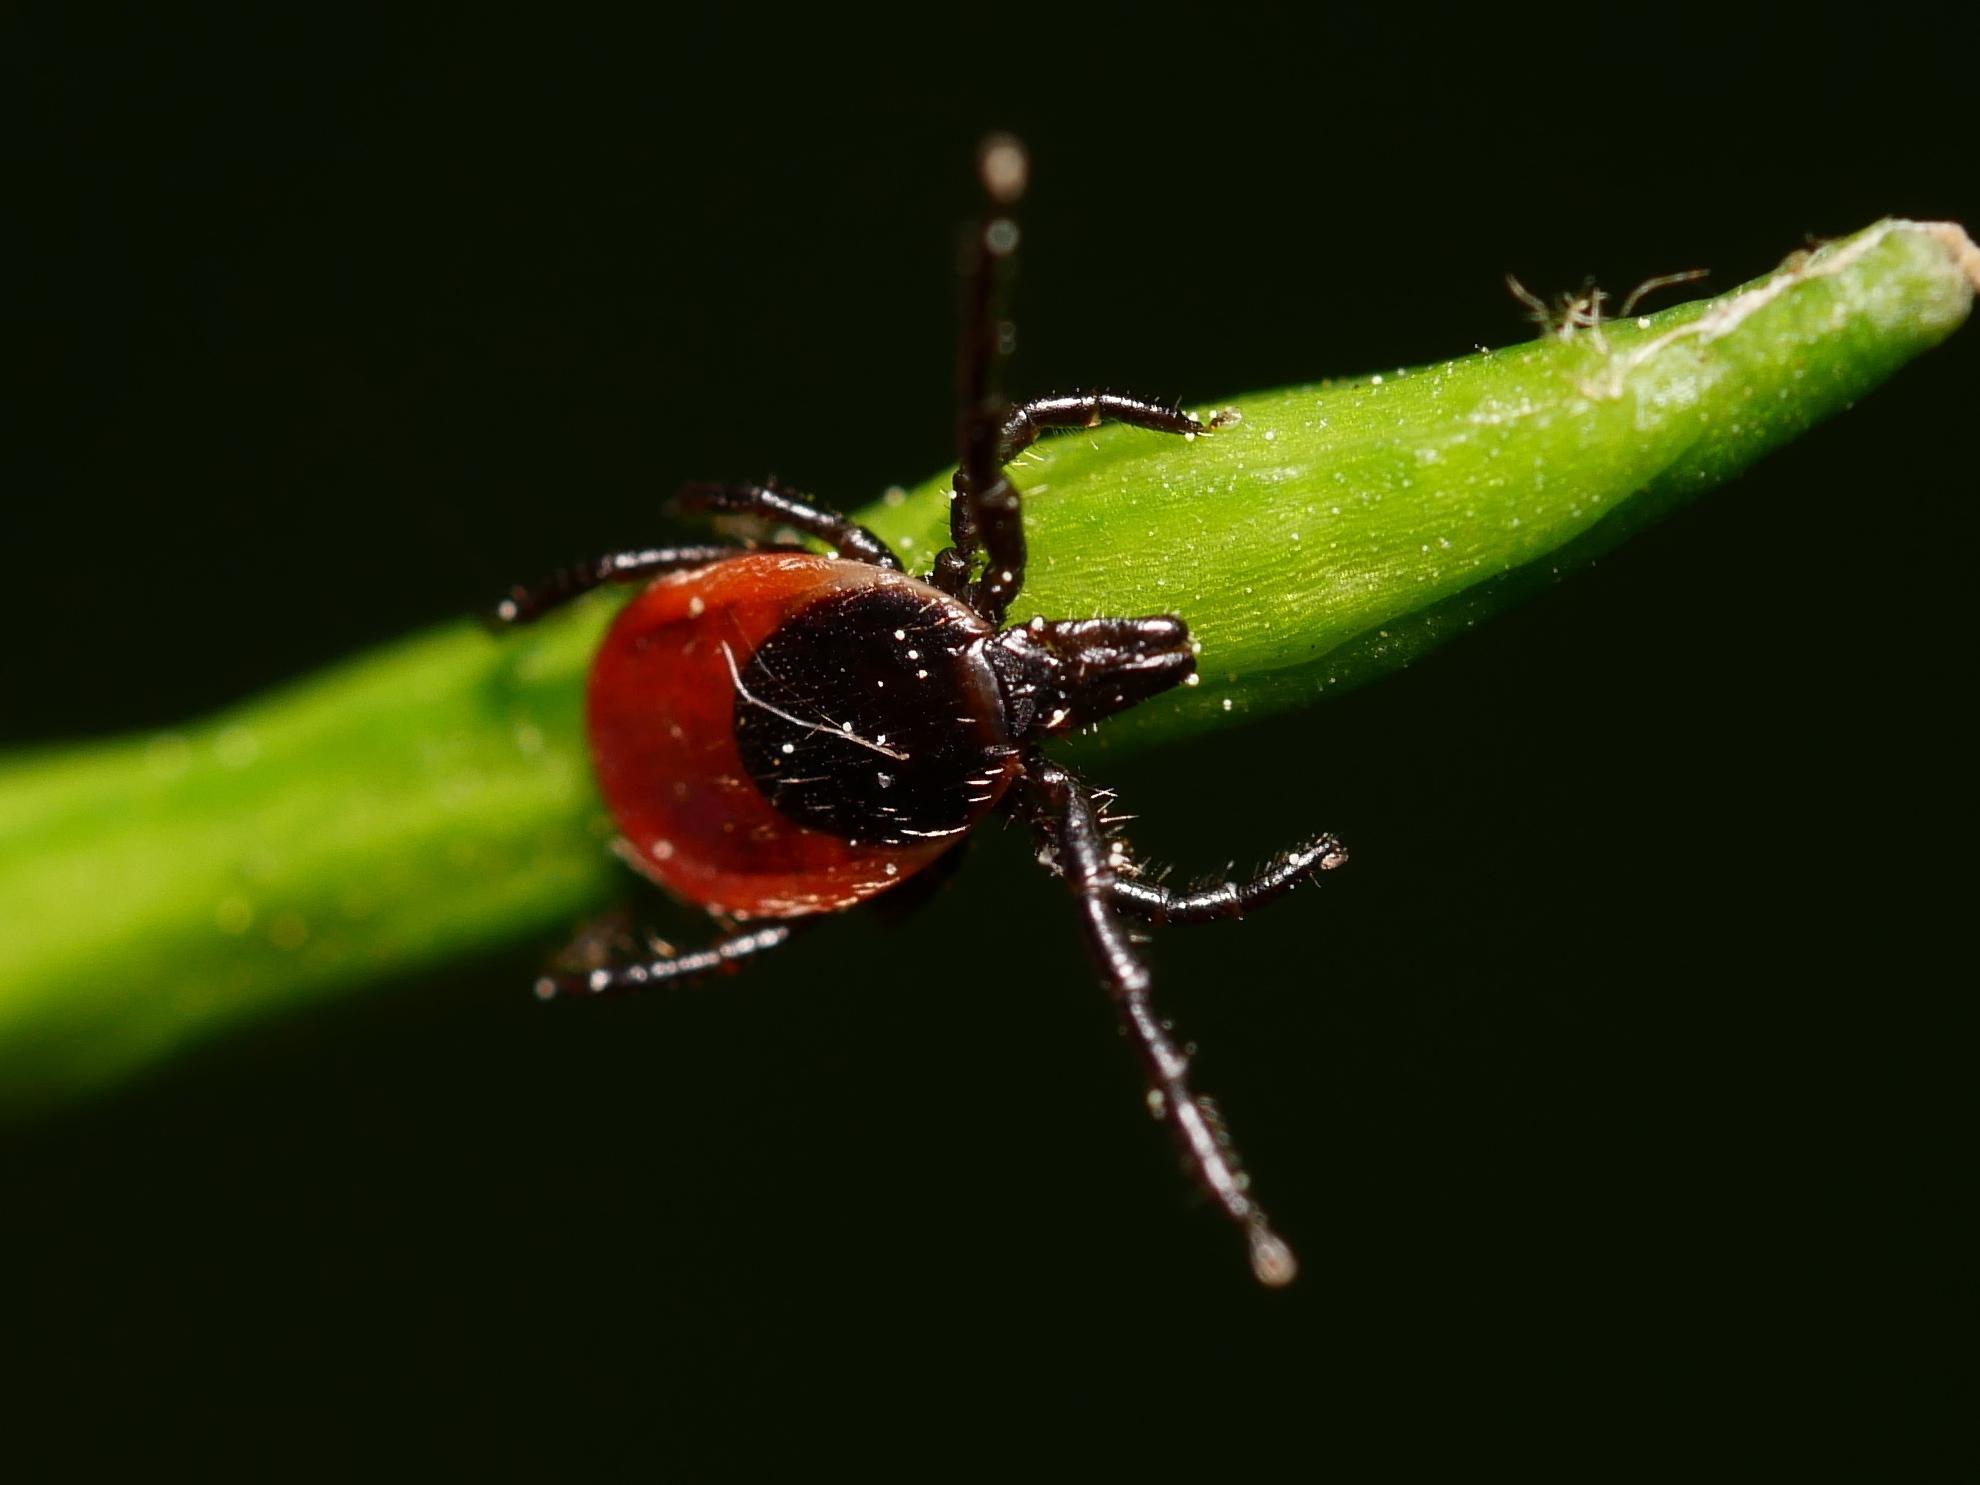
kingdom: Animalia
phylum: Arthropoda
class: Arachnida
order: Ixodida
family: Ixodidae
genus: Ixodes
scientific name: Ixodes ricinus
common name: Castor bean tick
